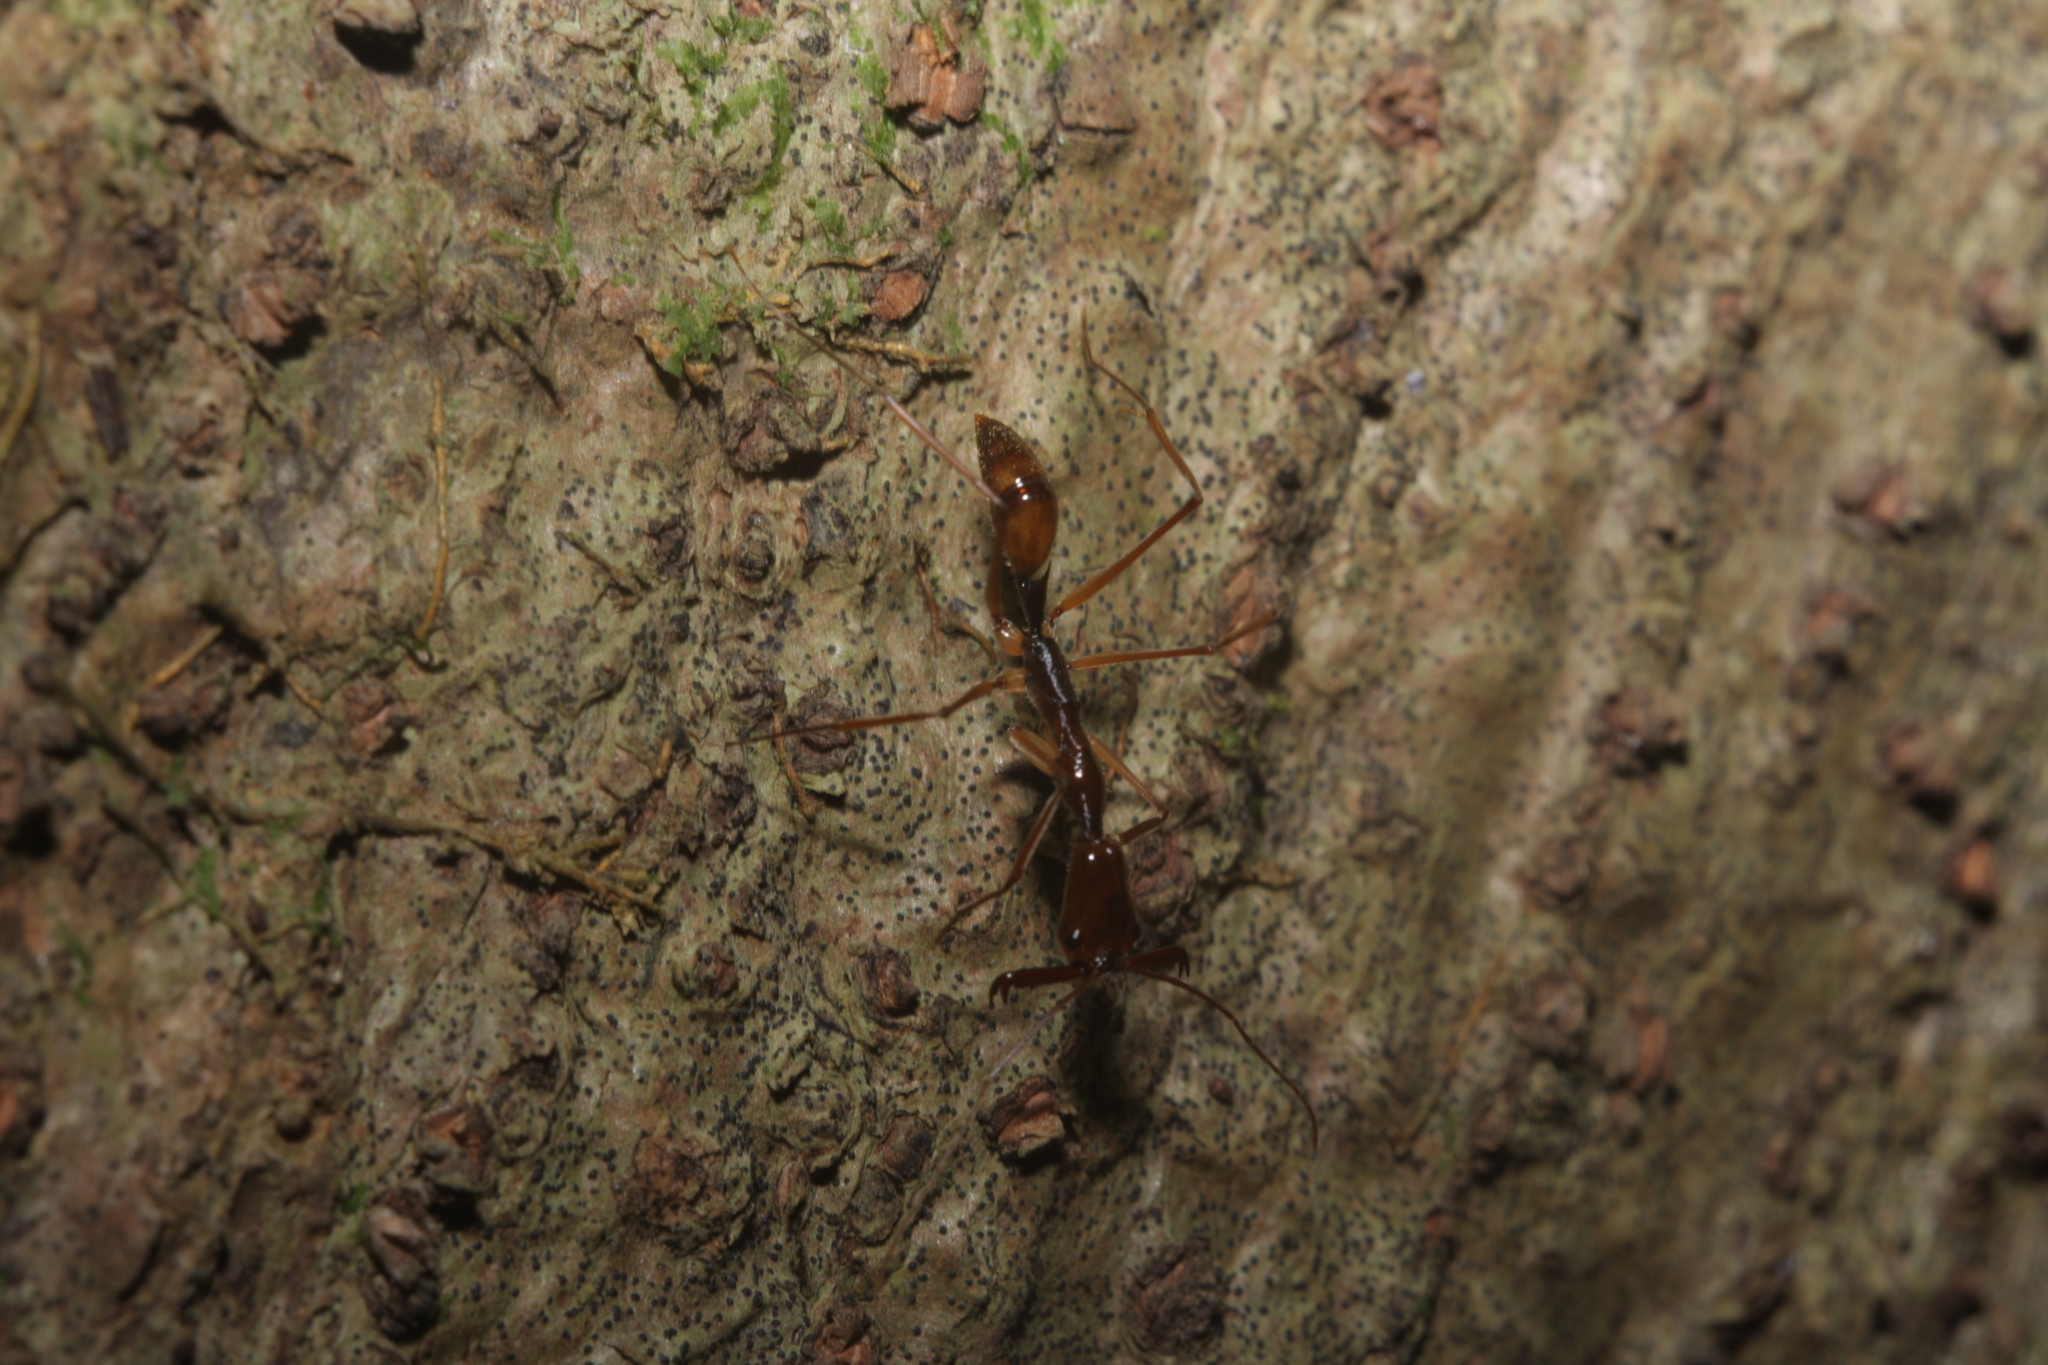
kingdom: Animalia
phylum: Arthropoda
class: Insecta
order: Hymenoptera
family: Formicidae
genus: Odontomachus
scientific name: Odontomachus hastatus
